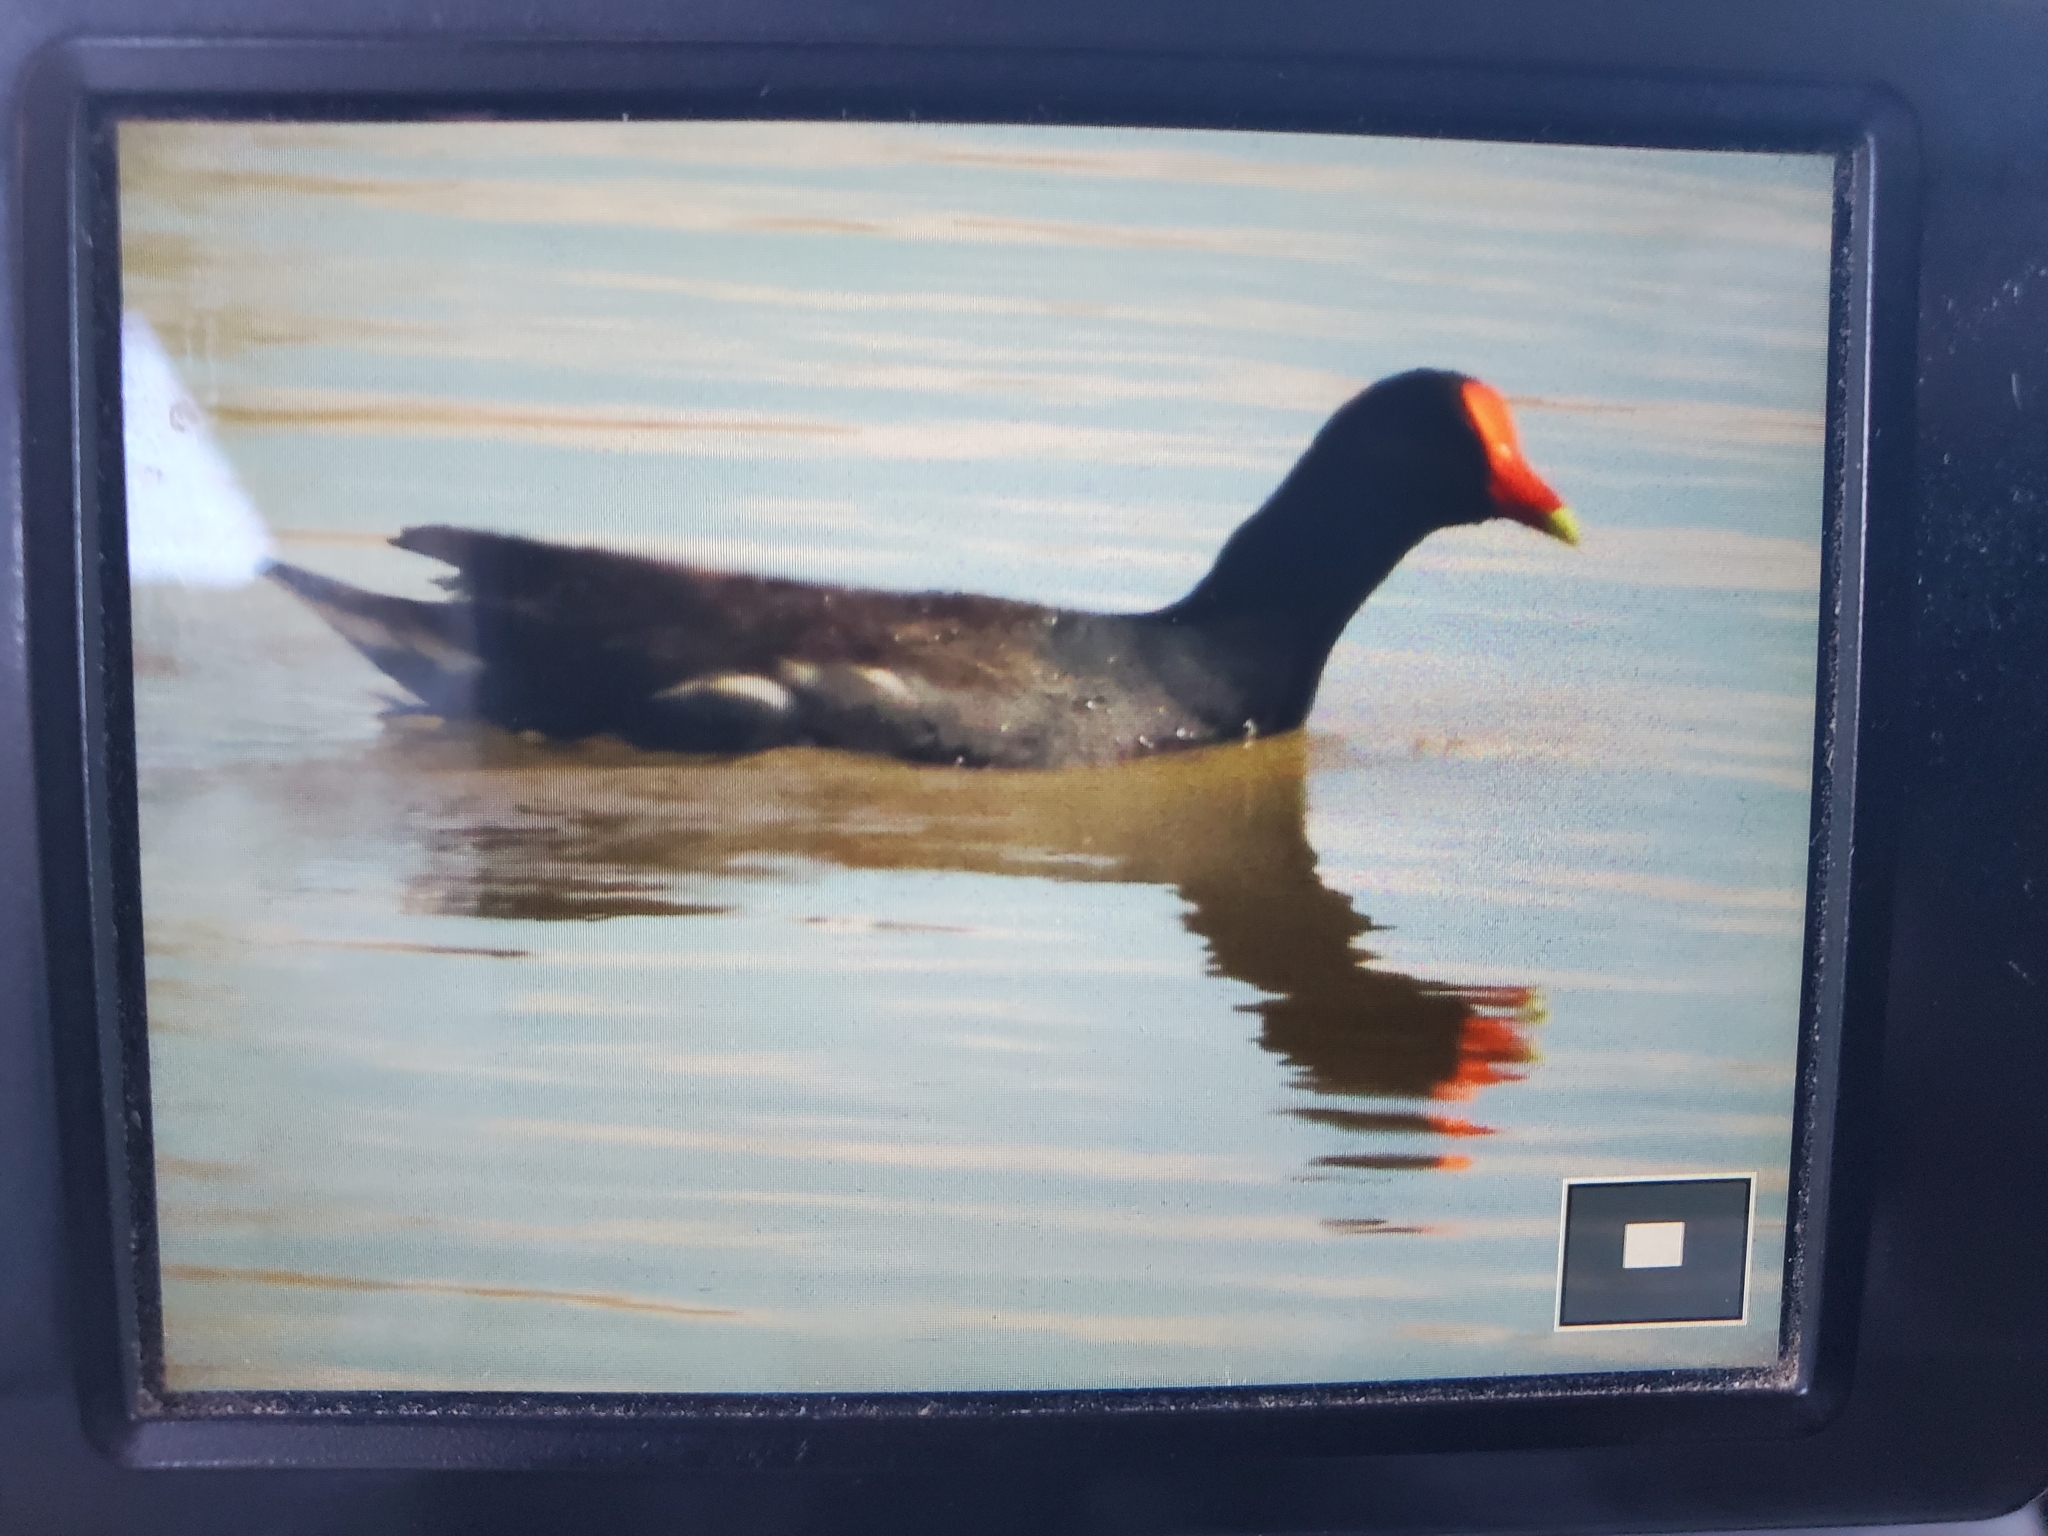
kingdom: Animalia
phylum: Chordata
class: Aves
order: Gruiformes
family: Rallidae
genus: Gallinula
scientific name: Gallinula chloropus
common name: Common moorhen
